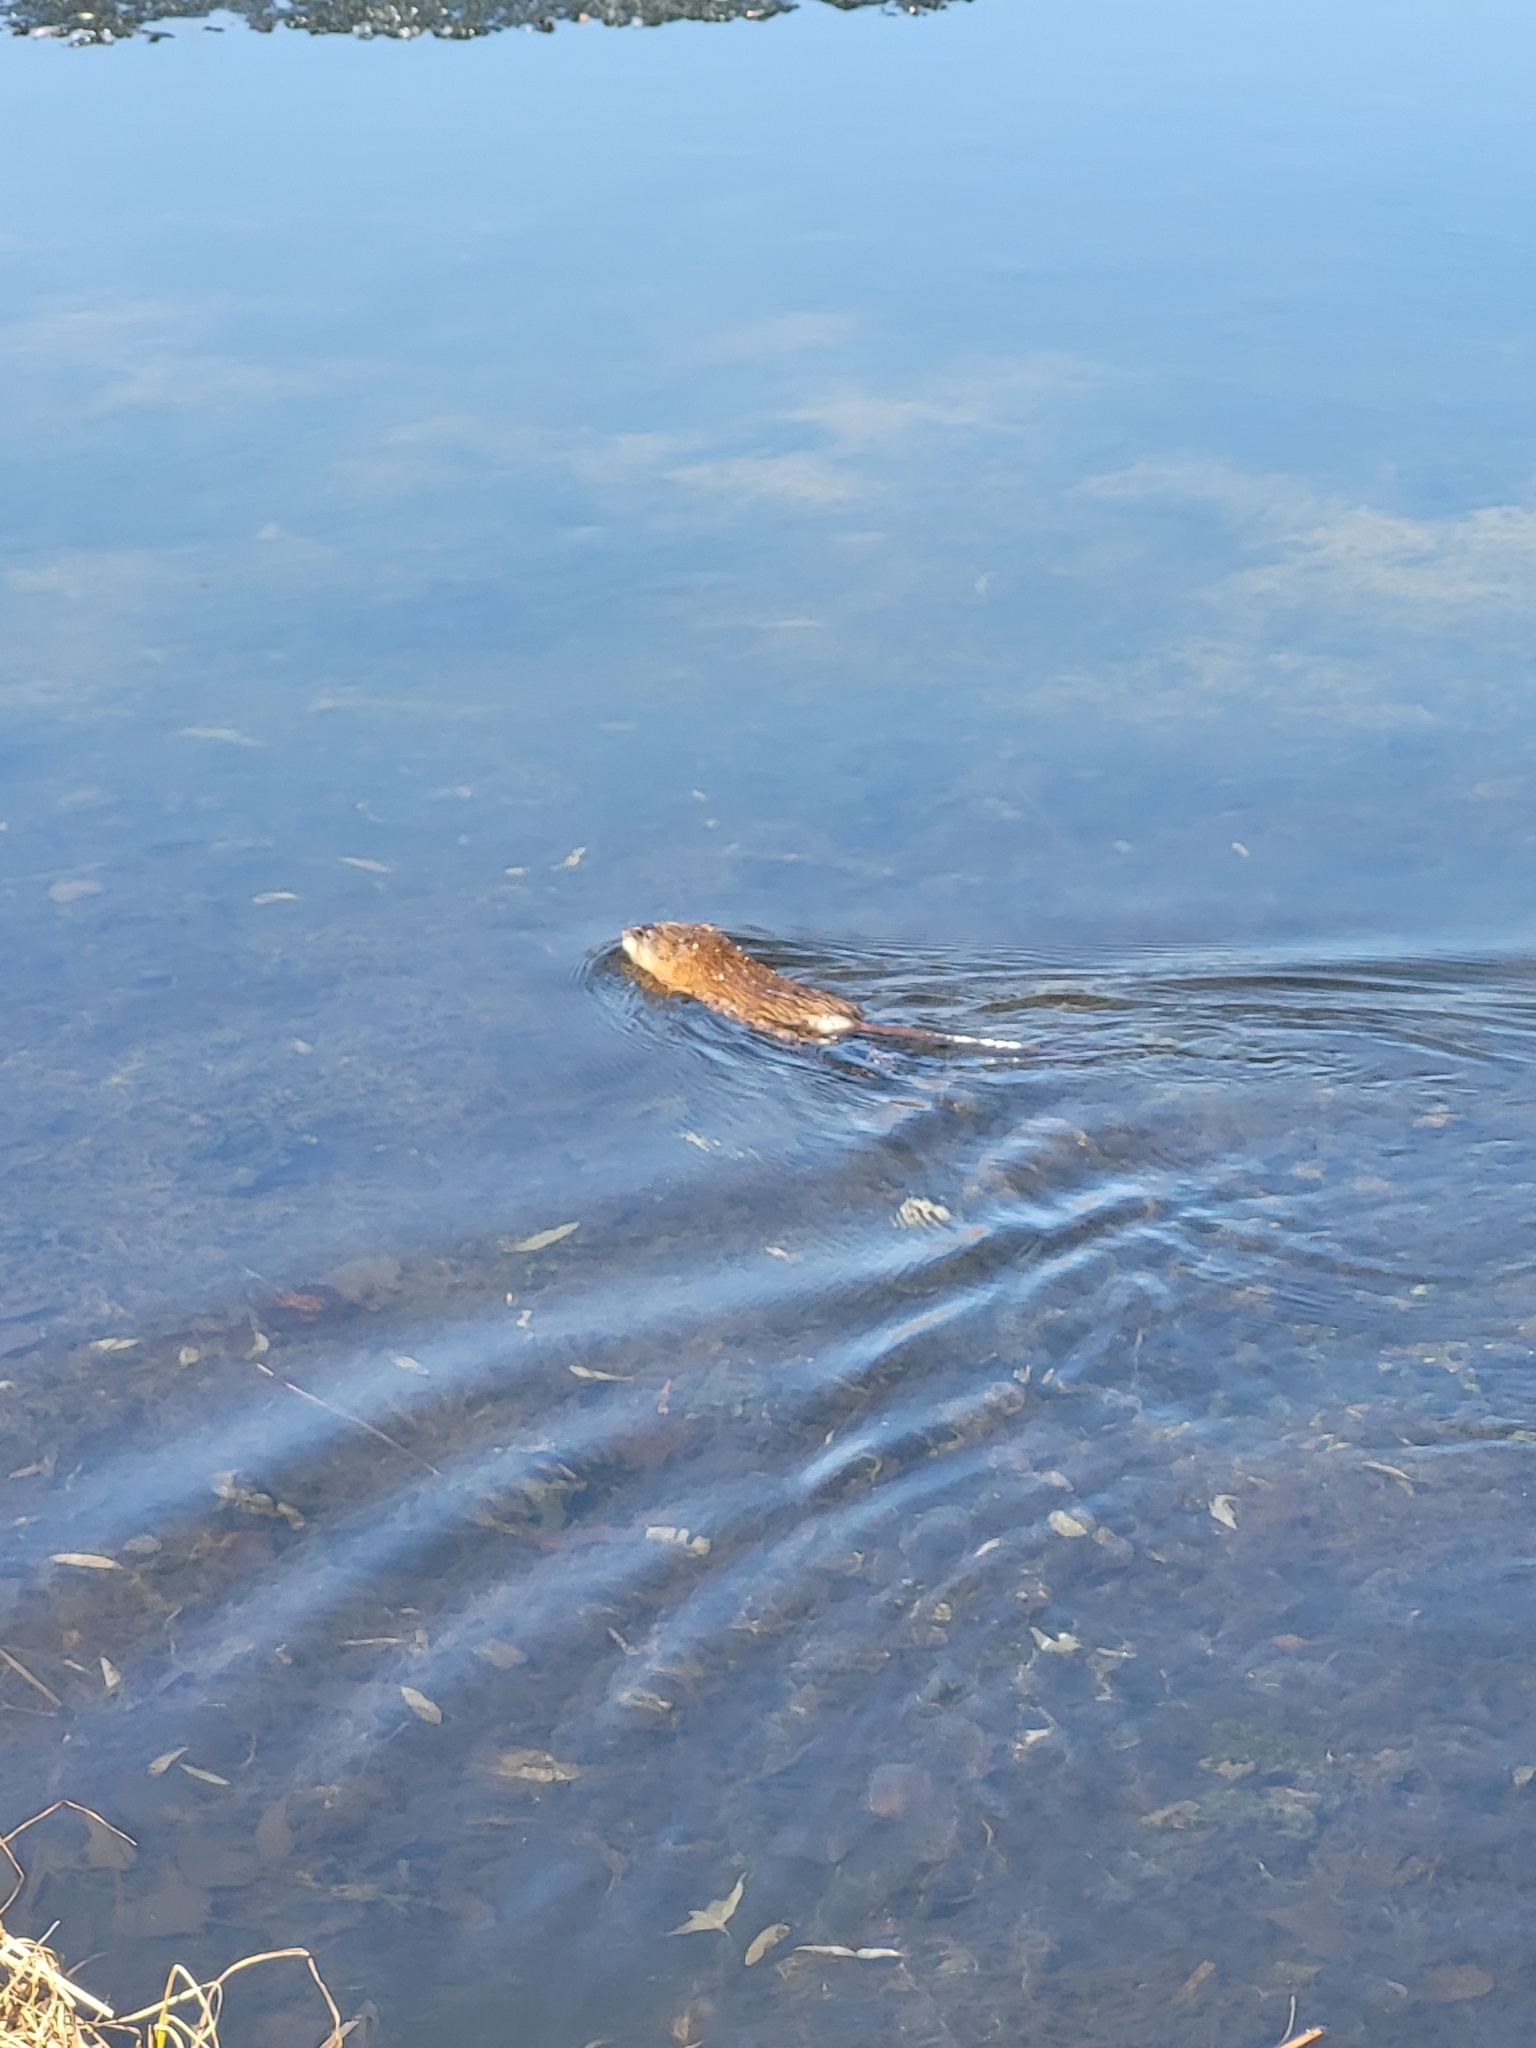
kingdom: Animalia
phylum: Chordata
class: Mammalia
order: Rodentia
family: Cricetidae
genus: Ondatra
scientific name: Ondatra zibethicus
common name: Muskrat
